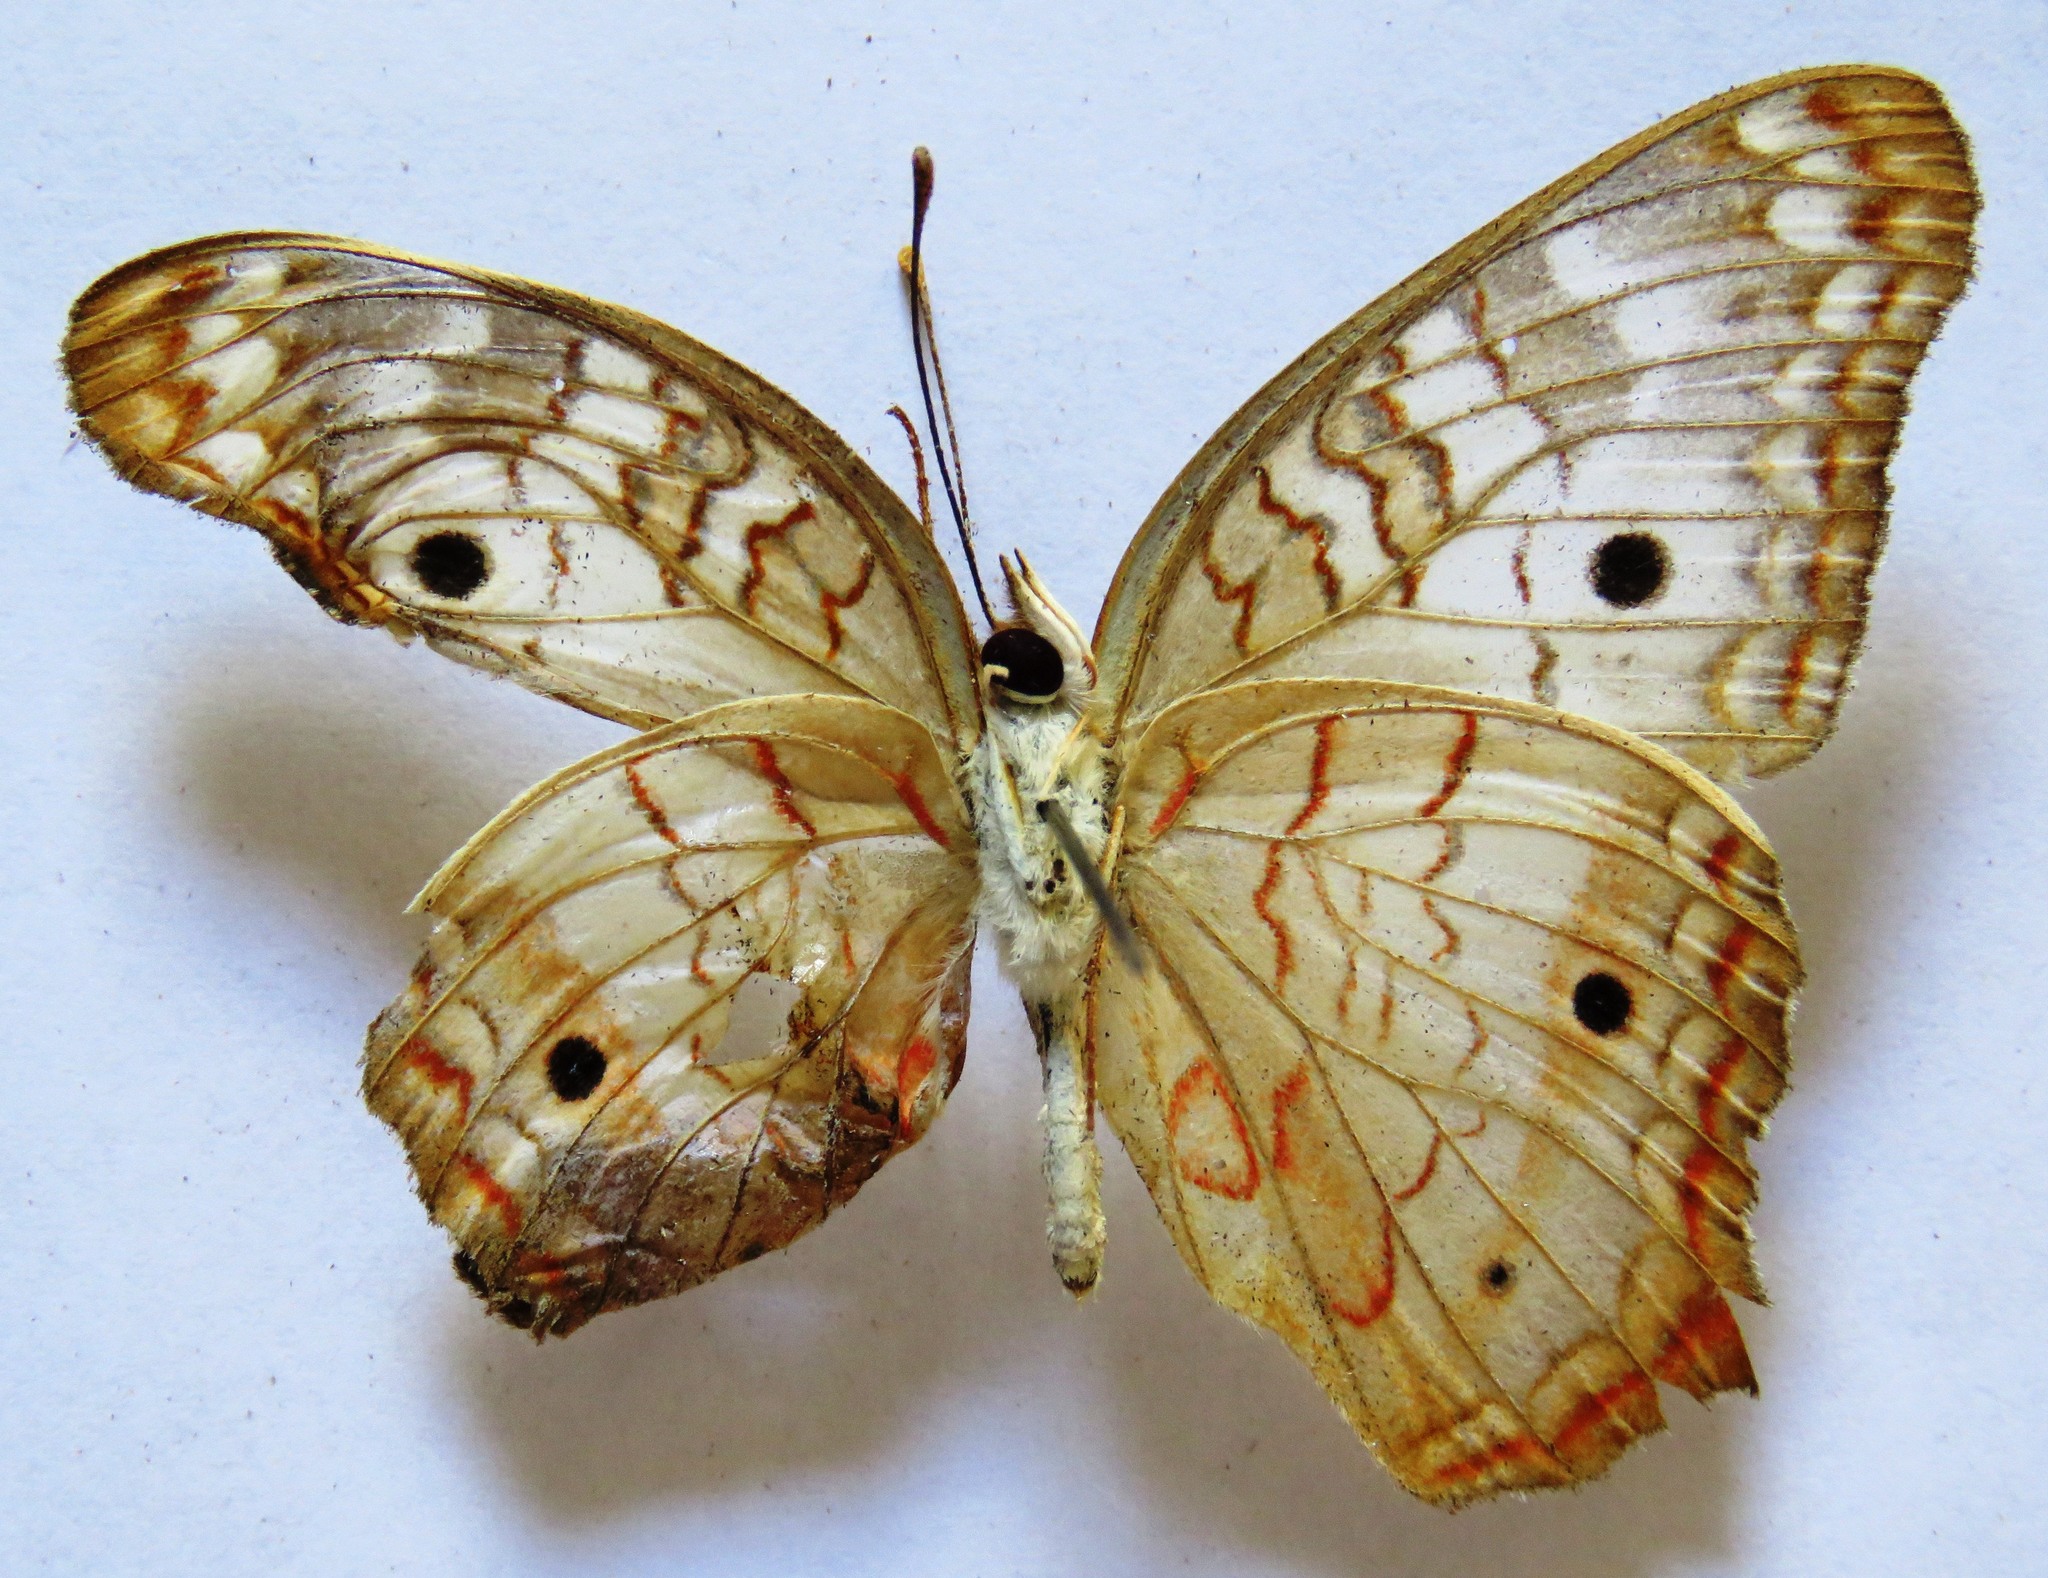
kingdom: Animalia
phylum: Arthropoda
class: Insecta
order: Lepidoptera
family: Nymphalidae
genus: Anartia
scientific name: Anartia jatrophae
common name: White peacock
